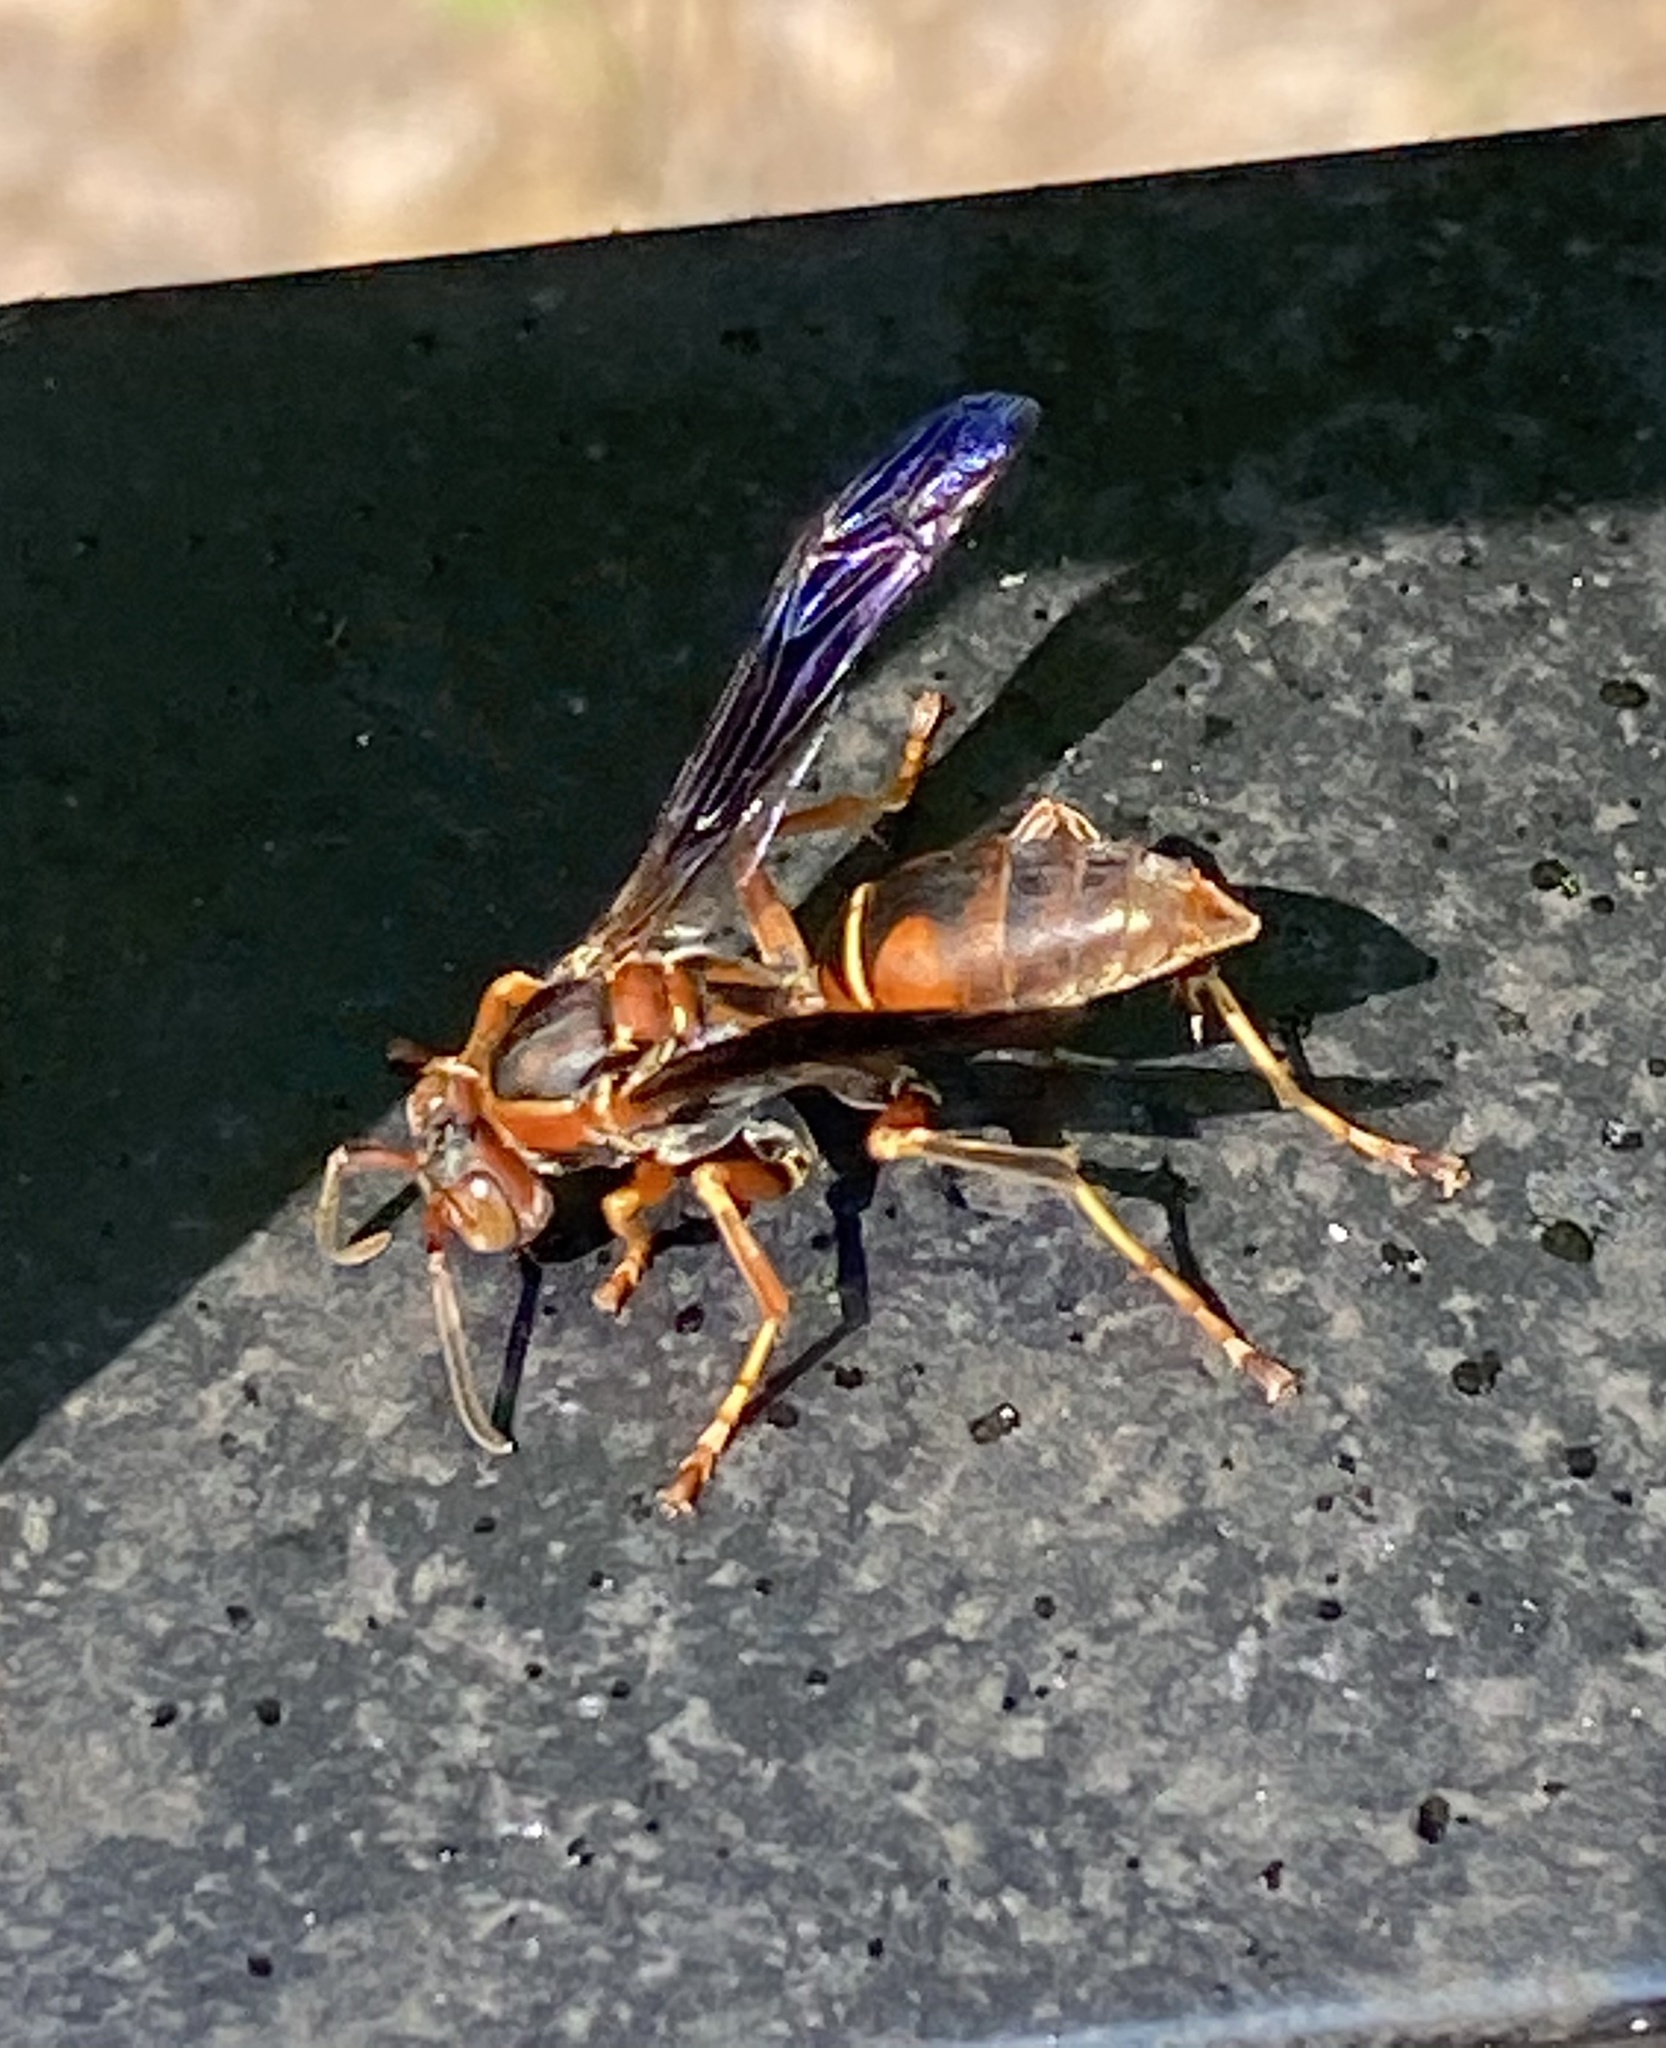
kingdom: Animalia
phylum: Arthropoda
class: Insecta
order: Hymenoptera
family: Eumenidae
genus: Polistes
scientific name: Polistes fuscatus
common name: Dark paper wasp
